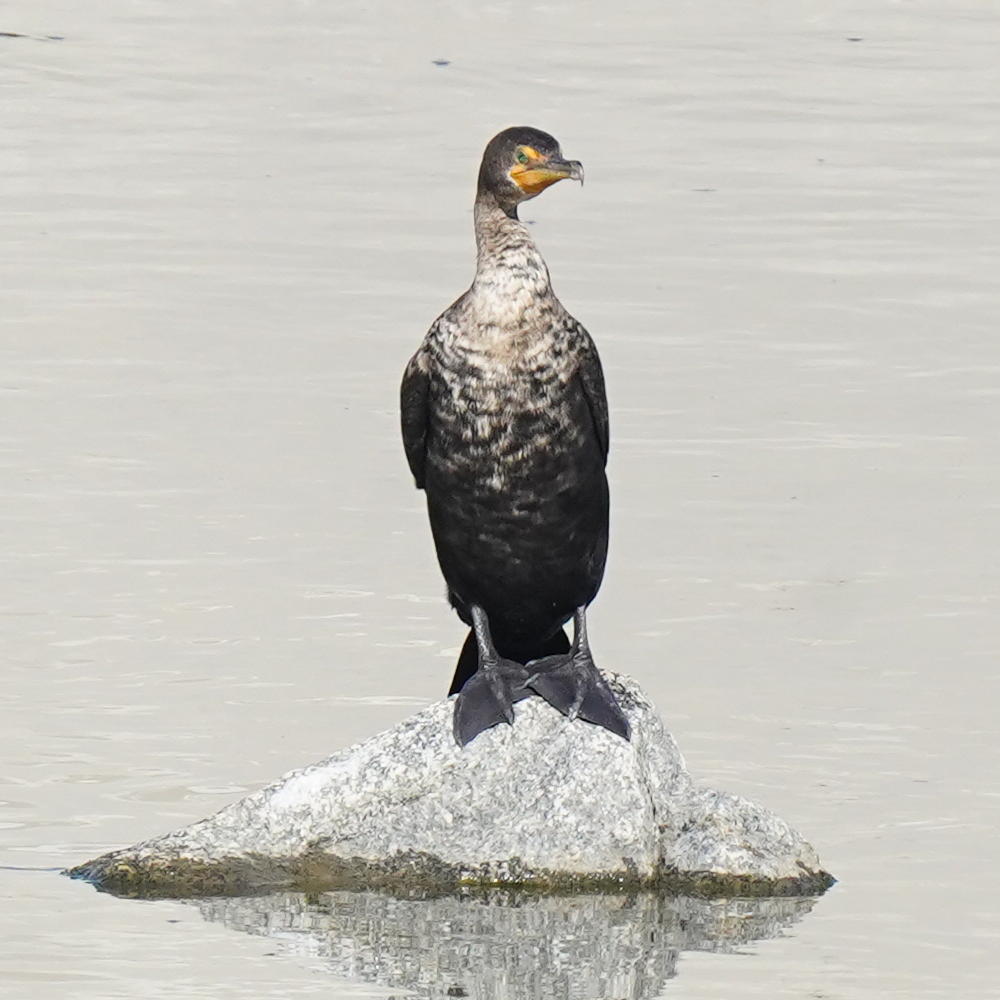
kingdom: Animalia
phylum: Chordata
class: Aves
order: Suliformes
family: Phalacrocoracidae
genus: Phalacrocorax
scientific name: Phalacrocorax auritus
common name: Double-crested cormorant
